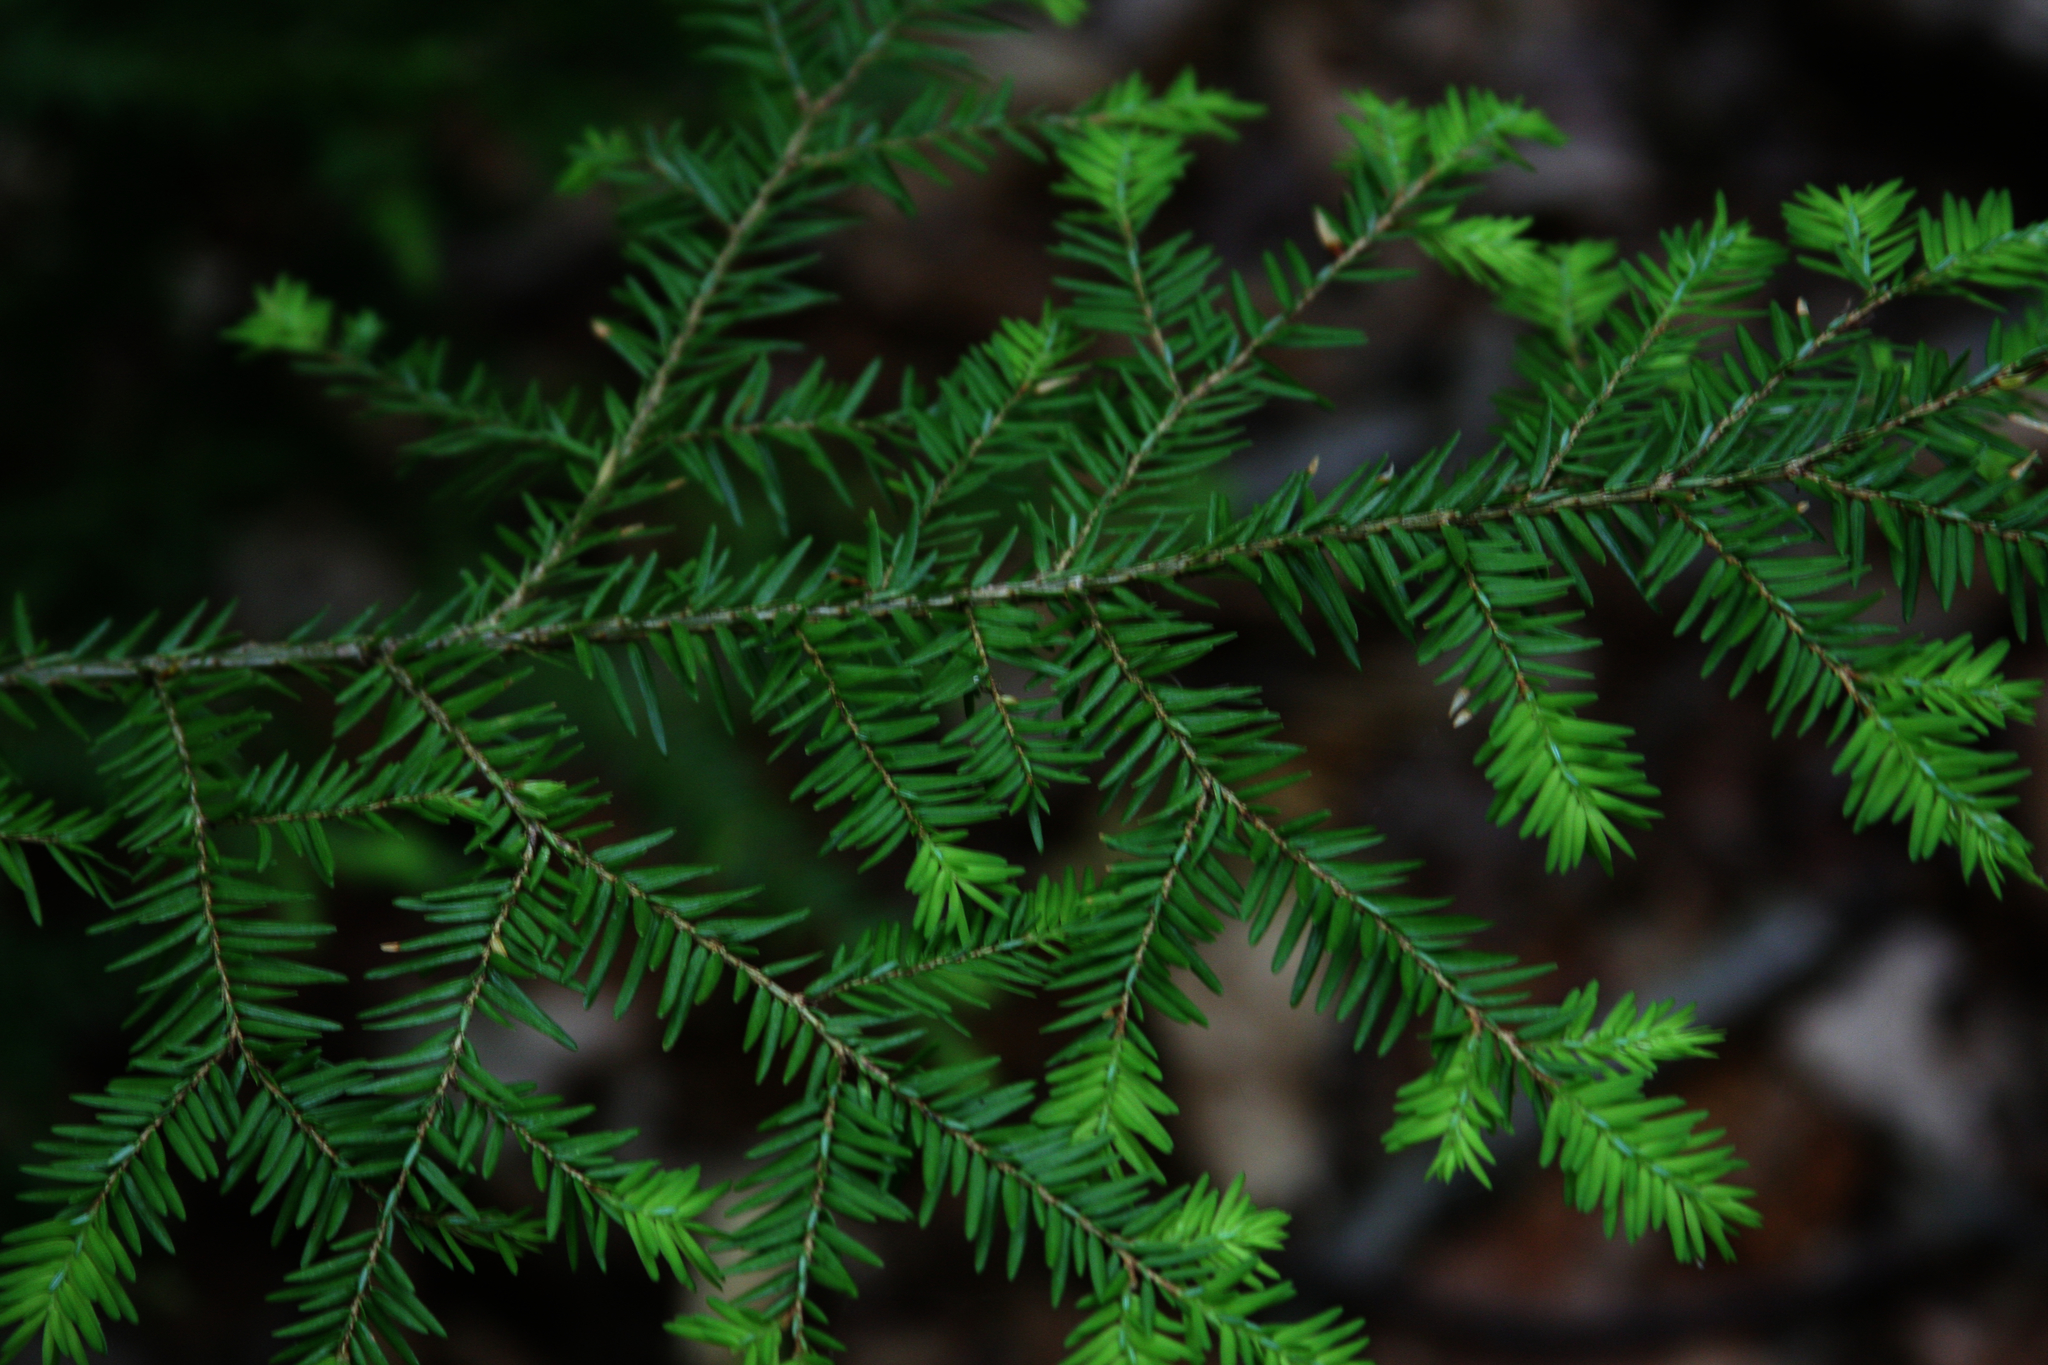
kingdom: Plantae
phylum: Tracheophyta
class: Pinopsida
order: Pinales
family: Pinaceae
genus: Tsuga
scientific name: Tsuga canadensis
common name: Eastern hemlock
